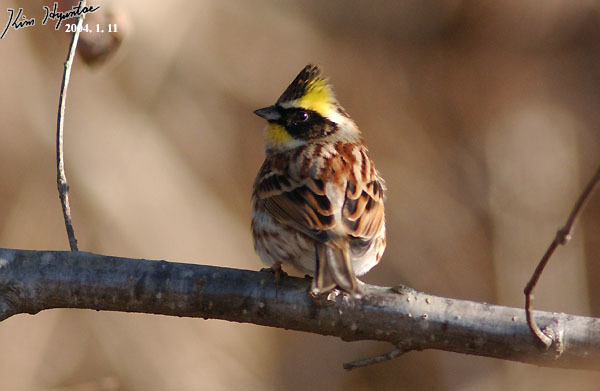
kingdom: Animalia
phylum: Chordata
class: Aves
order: Passeriformes
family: Emberizidae
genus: Emberiza
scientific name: Emberiza elegans
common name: Yellow-throated bunting
